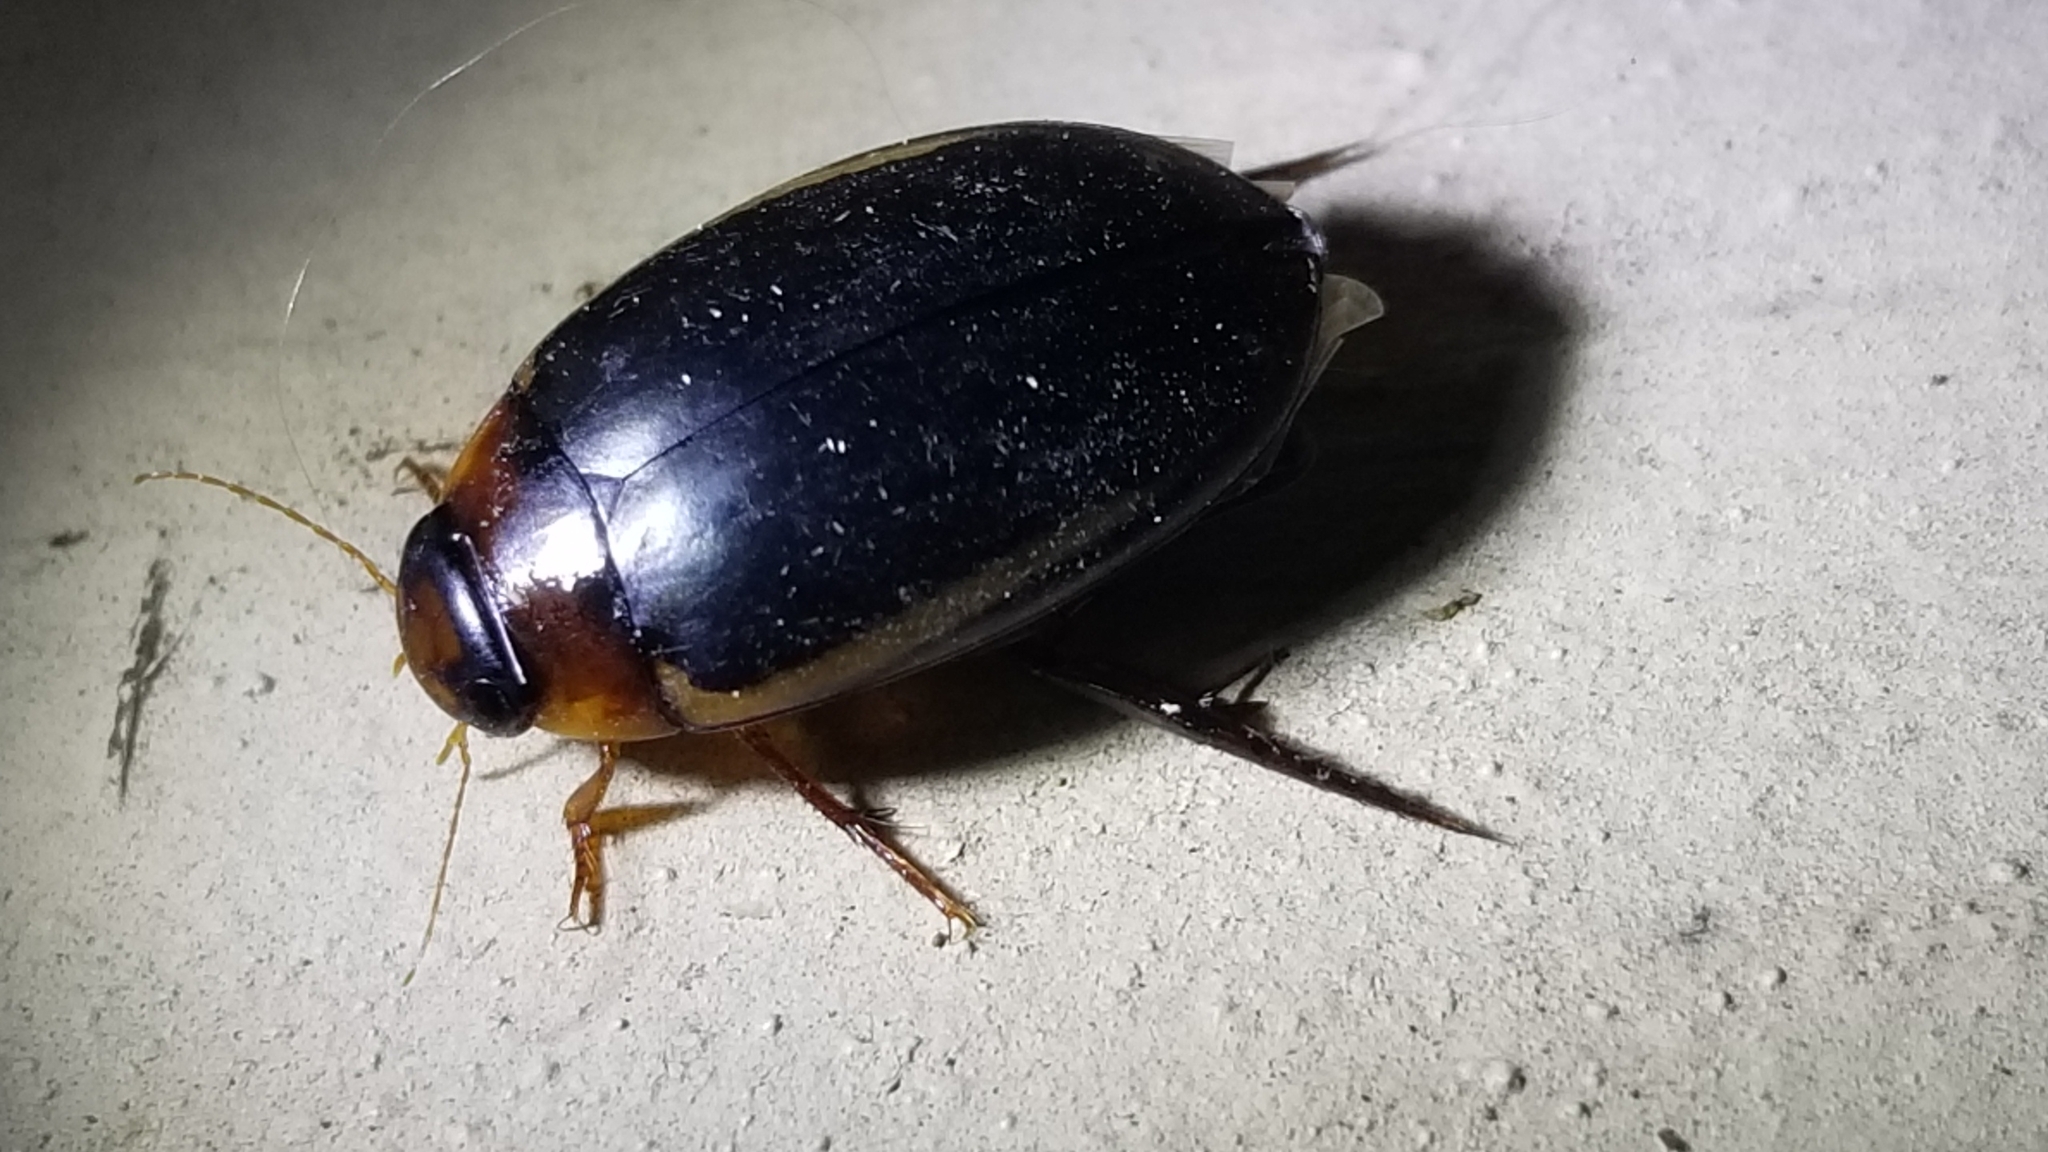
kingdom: Animalia
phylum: Arthropoda
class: Insecta
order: Coleoptera
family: Dytiscidae
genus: Hydaticus
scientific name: Hydaticus bimarginatus
